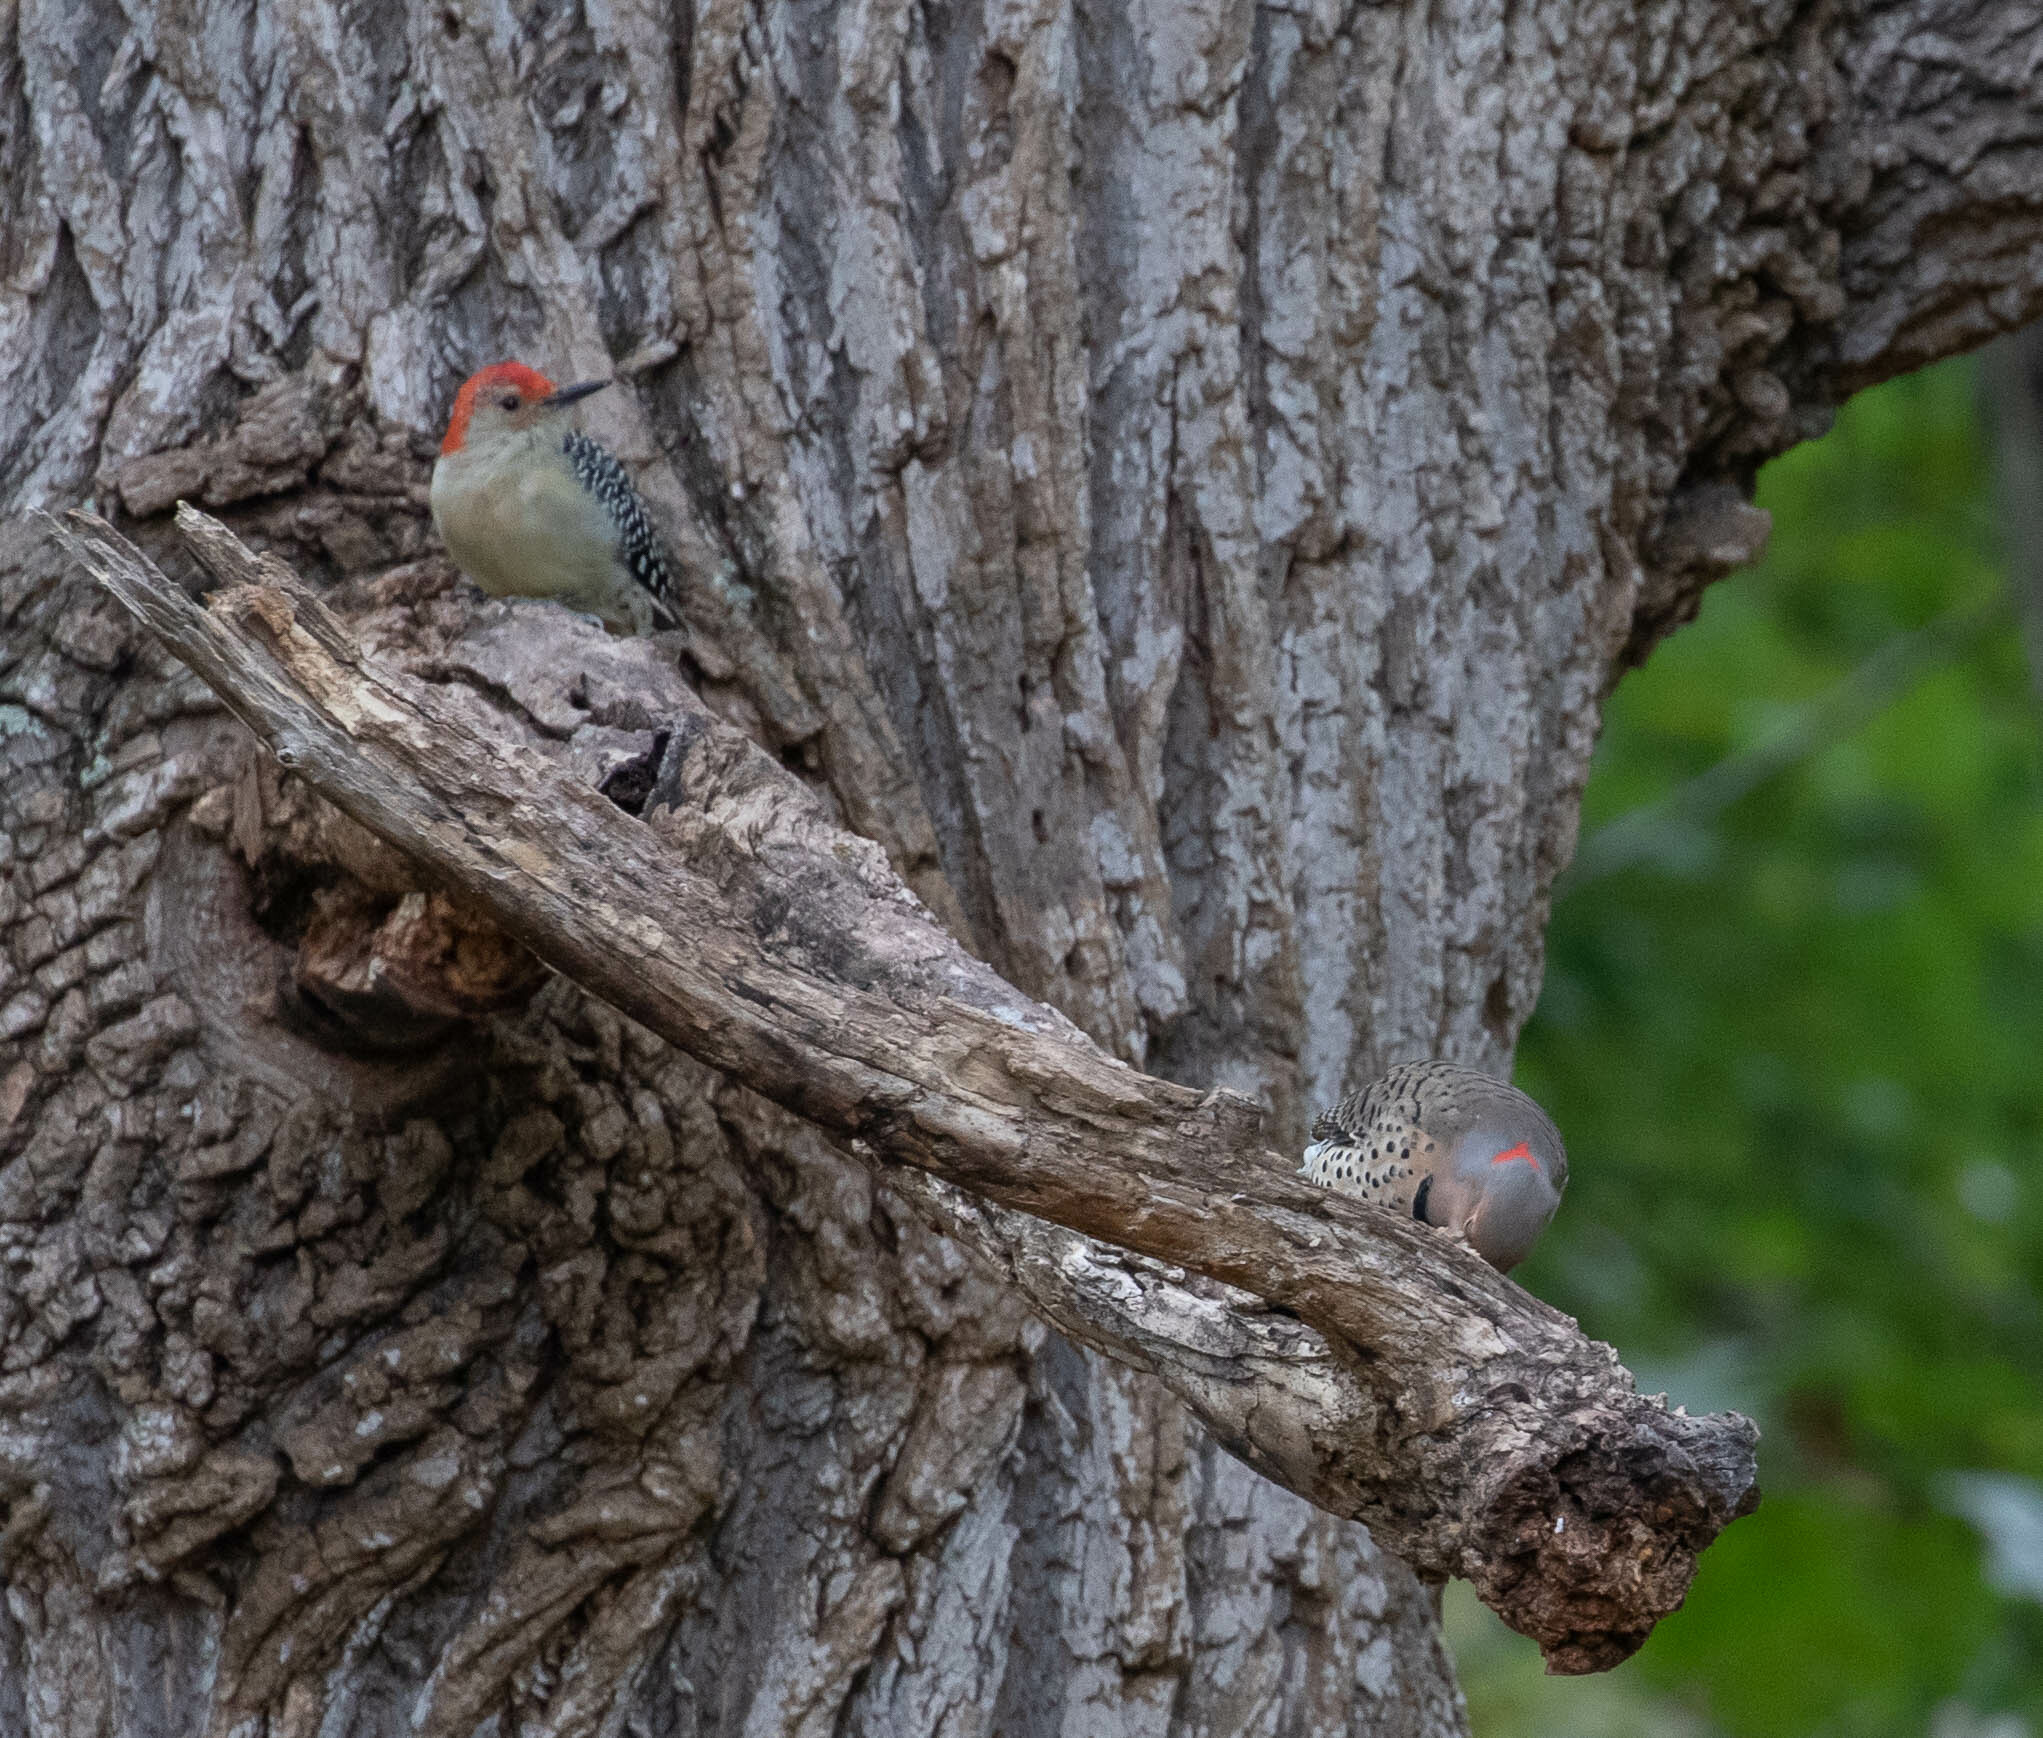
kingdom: Animalia
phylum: Chordata
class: Aves
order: Piciformes
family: Picidae
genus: Melanerpes
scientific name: Melanerpes carolinus
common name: Red-bellied woodpecker
